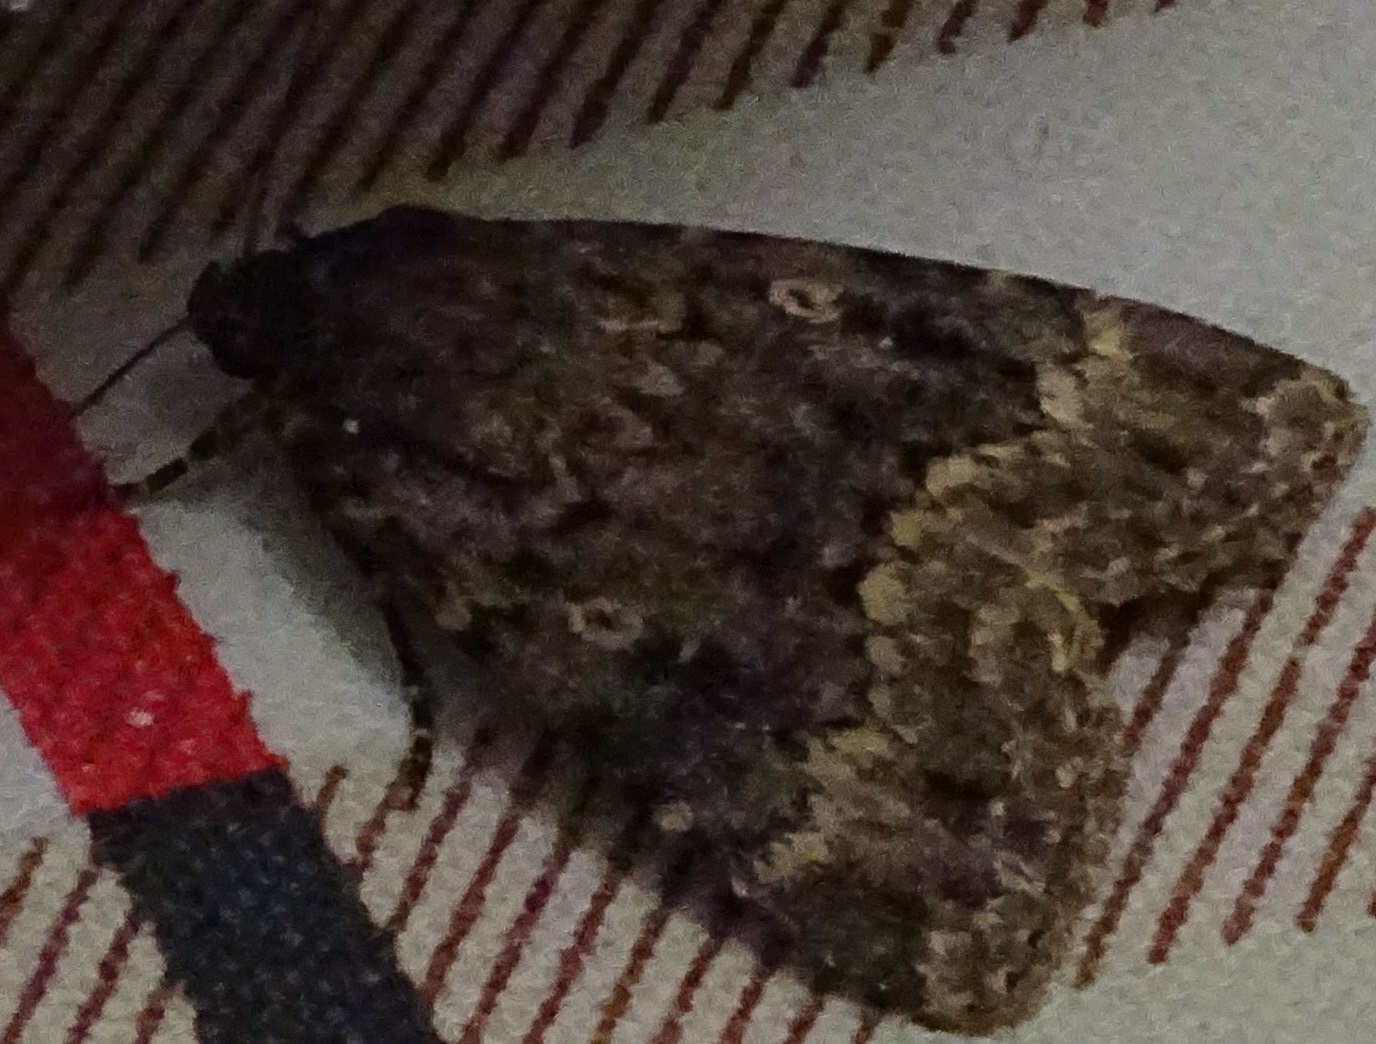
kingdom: Animalia
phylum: Arthropoda
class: Insecta
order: Lepidoptera
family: Noctuidae
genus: Amphipyra
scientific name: Amphipyra pyramidea
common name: Copper underwing
